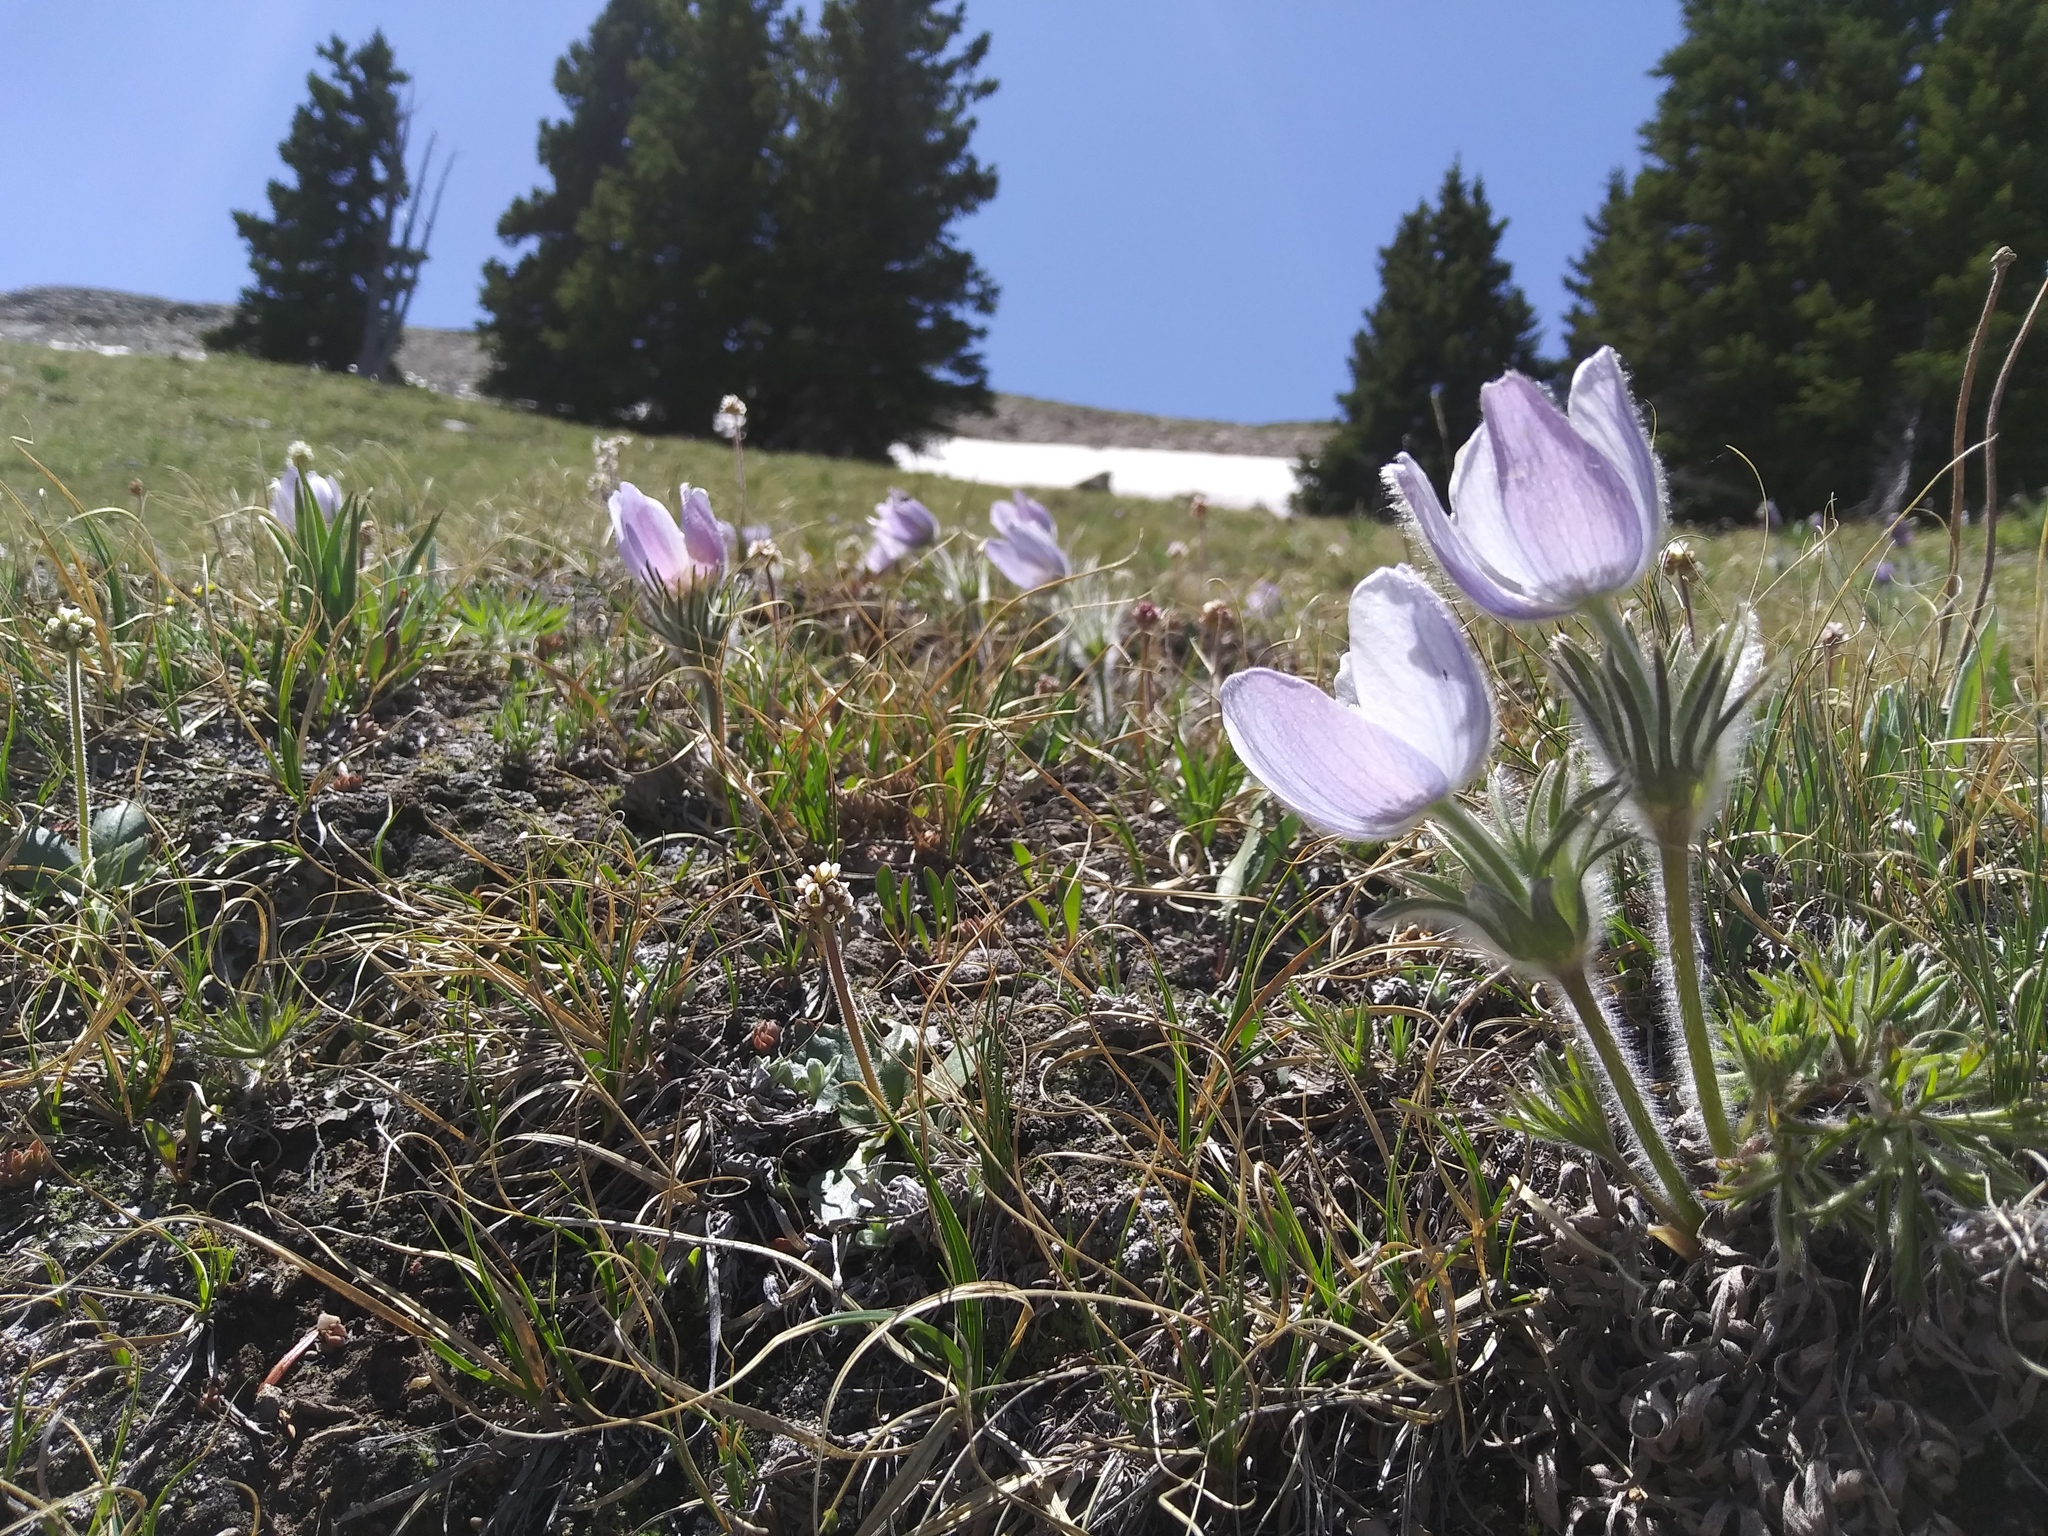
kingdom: Plantae
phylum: Tracheophyta
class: Magnoliopsida
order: Ranunculales
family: Ranunculaceae
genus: Pulsatilla
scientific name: Pulsatilla nuttalliana
